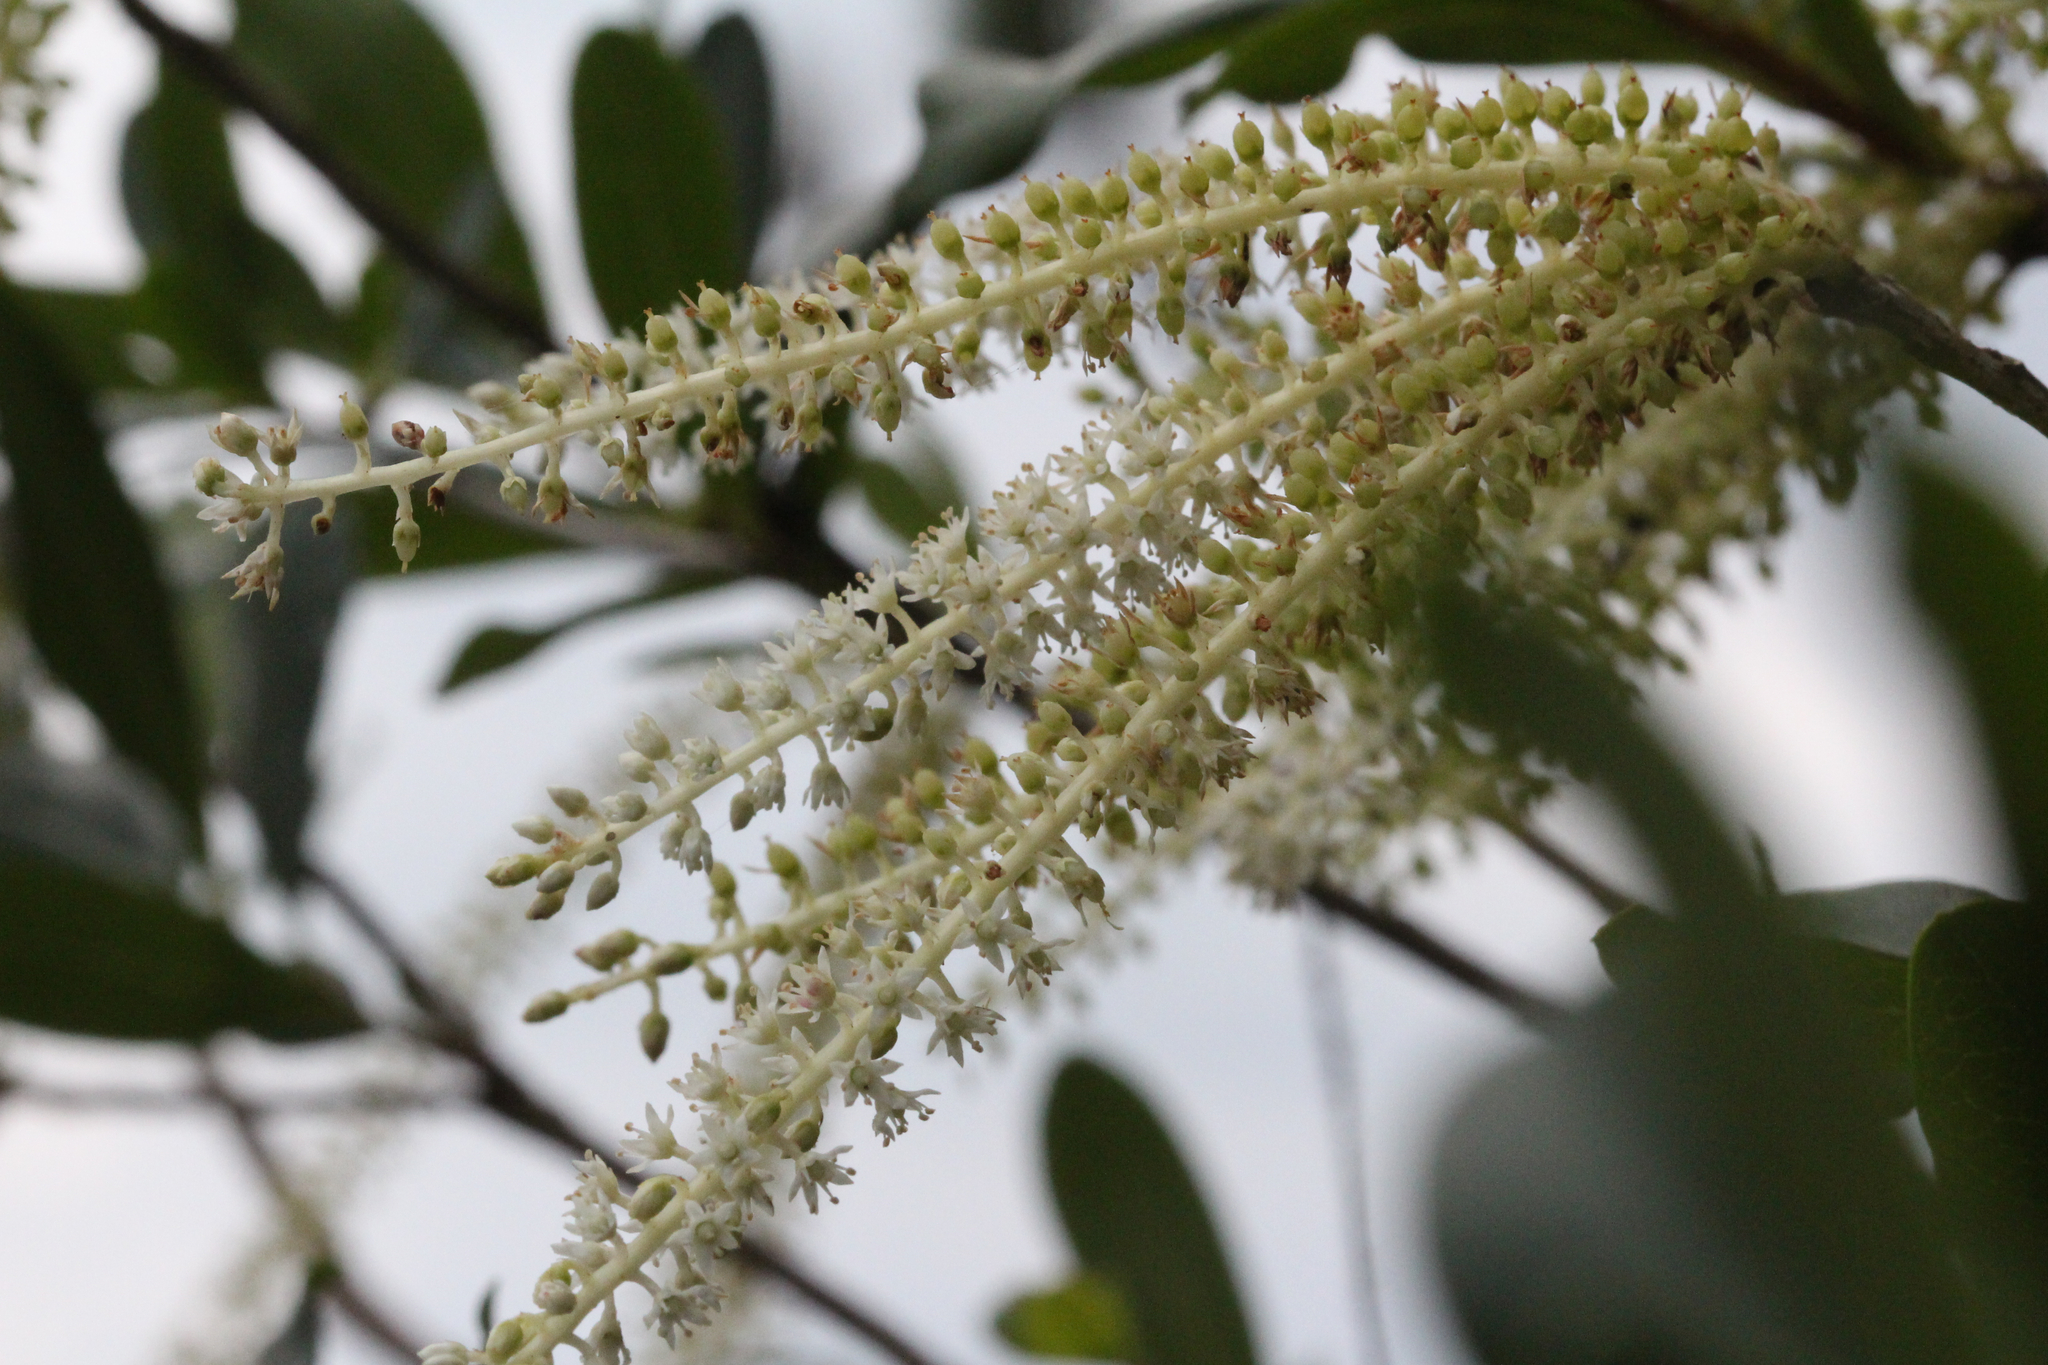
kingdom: Plantae
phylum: Tracheophyta
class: Magnoliopsida
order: Ericales
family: Cyrillaceae
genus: Cyrilla
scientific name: Cyrilla racemiflora
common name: Black titi
